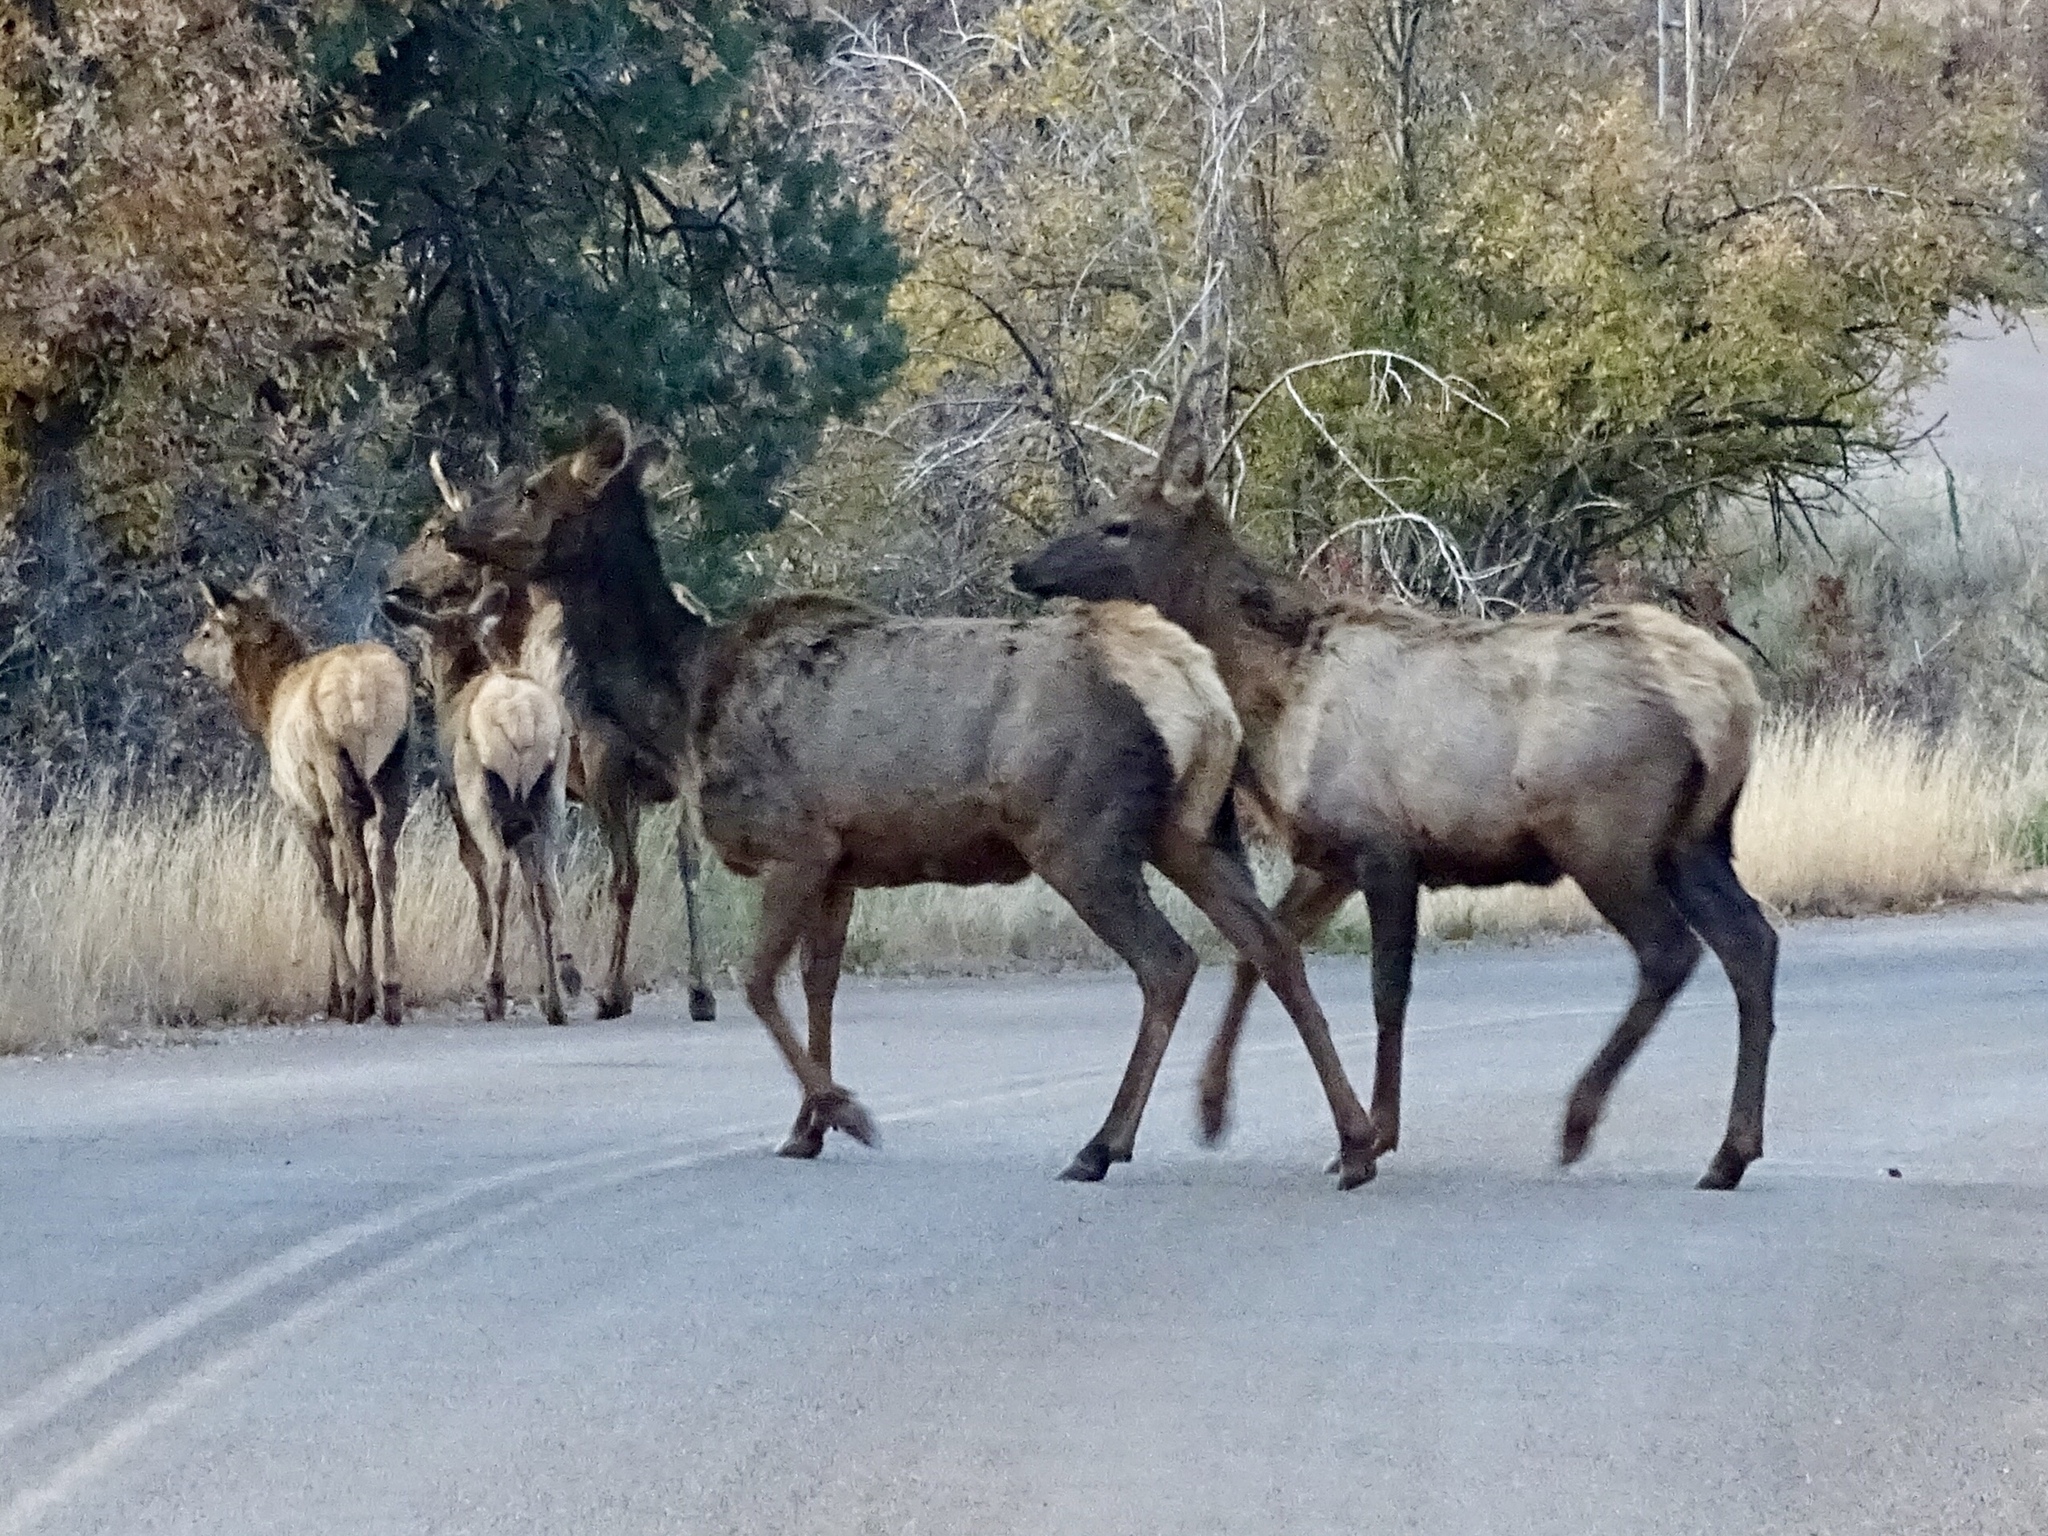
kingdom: Animalia
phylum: Chordata
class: Mammalia
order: Artiodactyla
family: Cervidae
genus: Cervus
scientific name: Cervus elaphus
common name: Red deer
